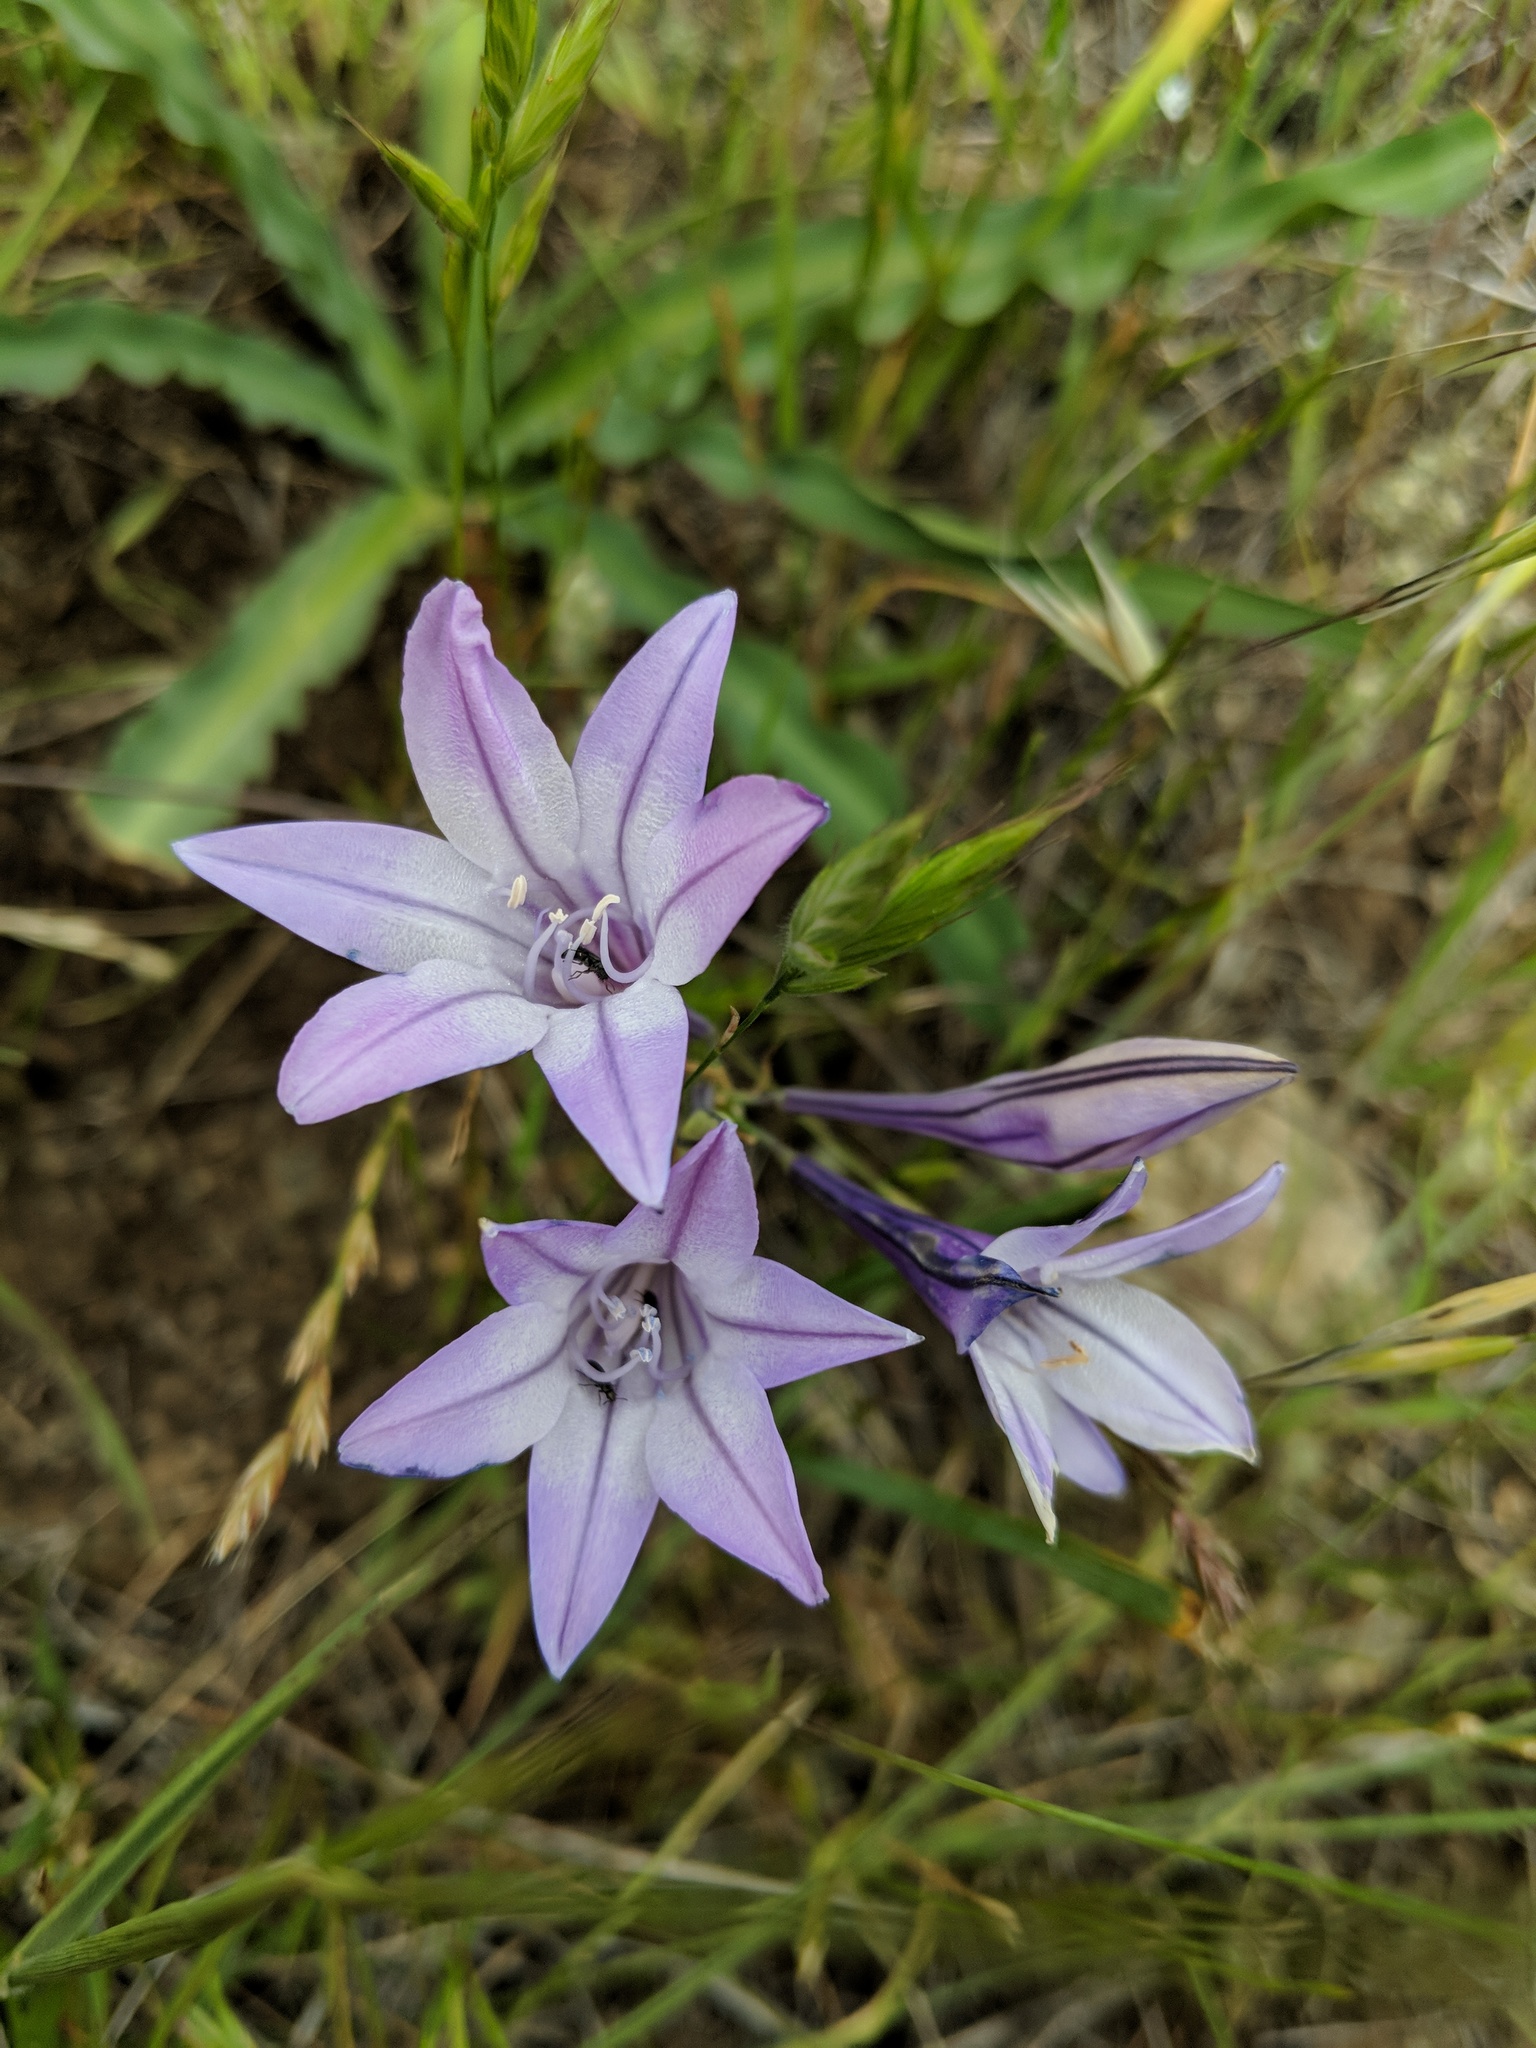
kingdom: Plantae
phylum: Tracheophyta
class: Liliopsida
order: Asparagales
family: Asparagaceae
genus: Triteleia
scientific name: Triteleia laxa
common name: Triplet-lily
